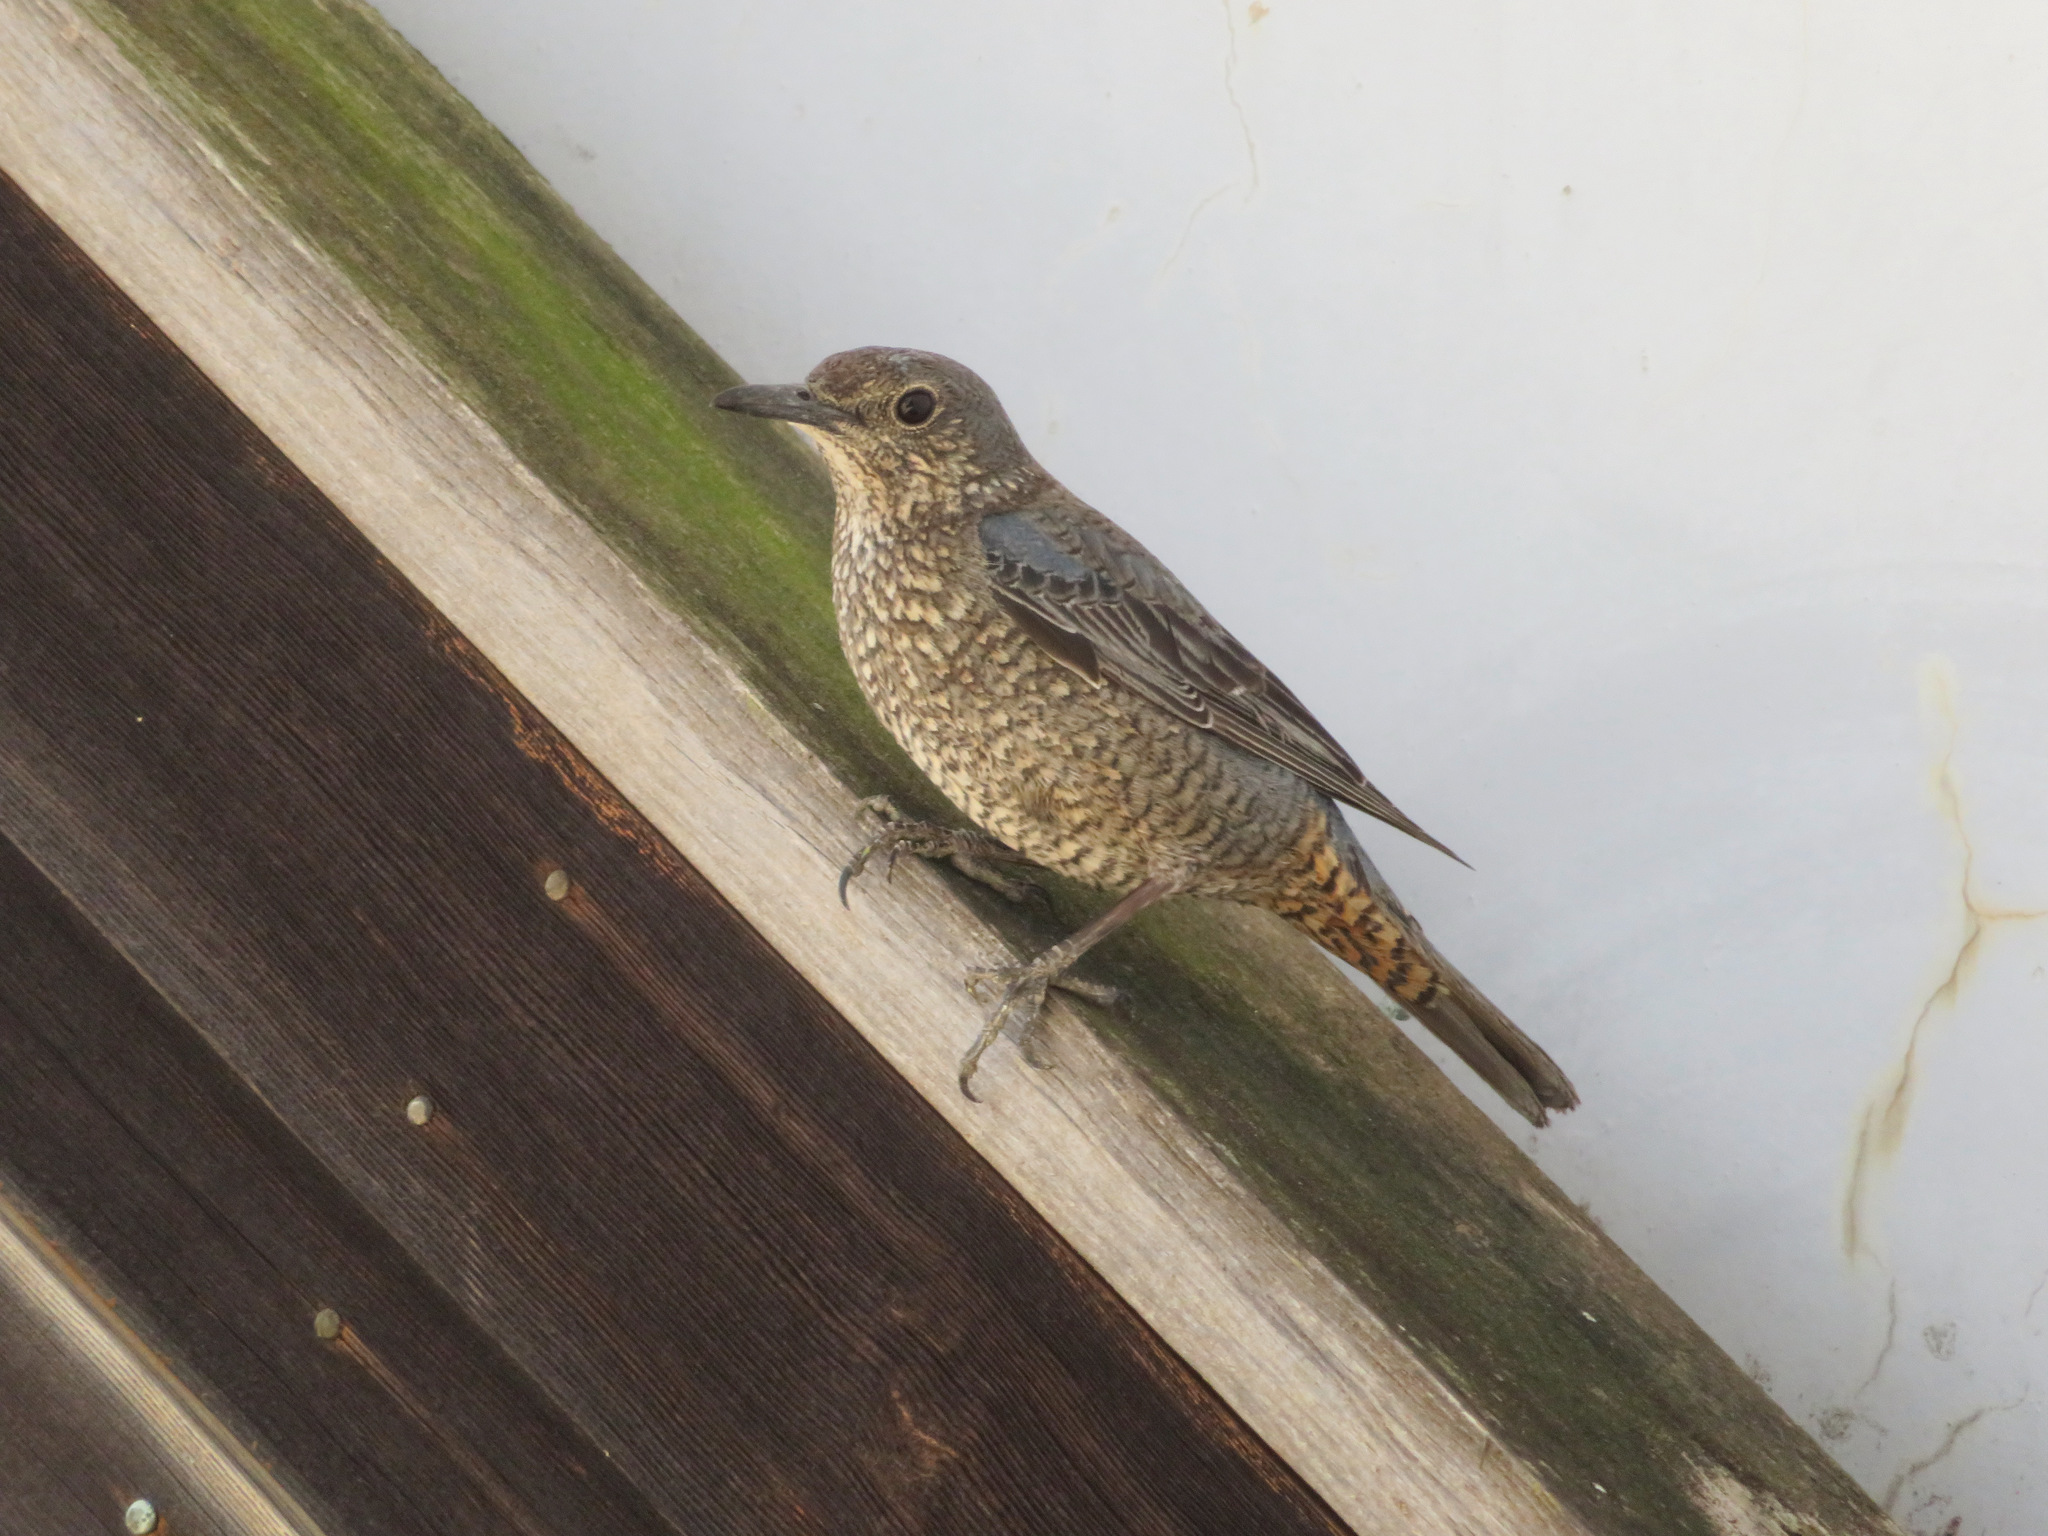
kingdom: Animalia
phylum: Chordata
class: Aves
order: Passeriformes
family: Muscicapidae
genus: Monticola
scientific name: Monticola solitarius
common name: Blue rock thrush
